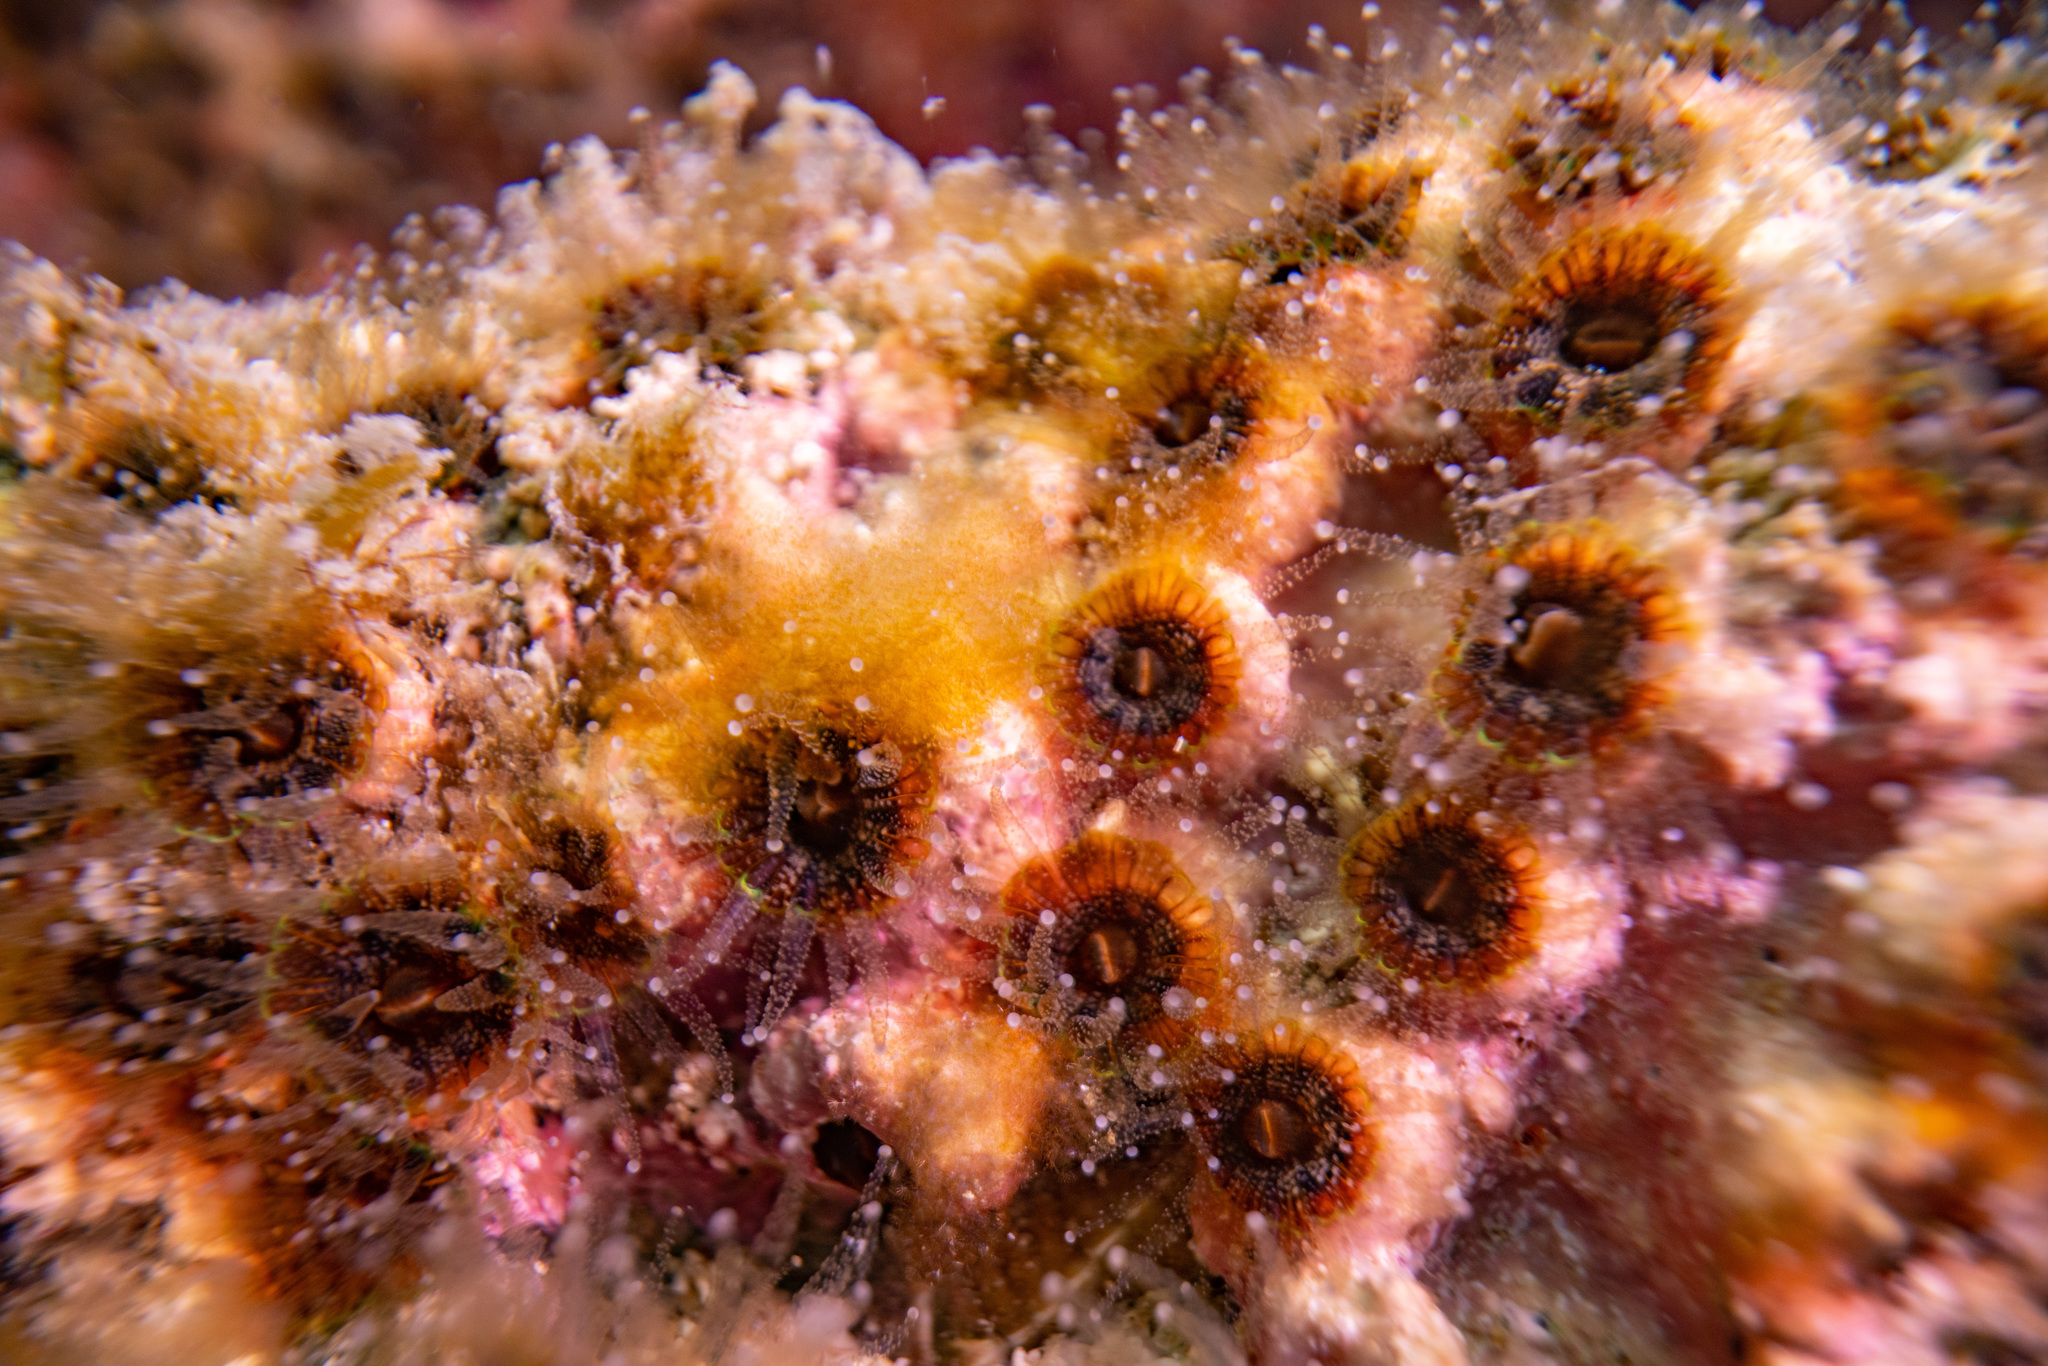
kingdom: Animalia
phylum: Cnidaria
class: Anthozoa
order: Scleractinia
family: Rhizangiidae
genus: Culicia
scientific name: Culicia rubeola
